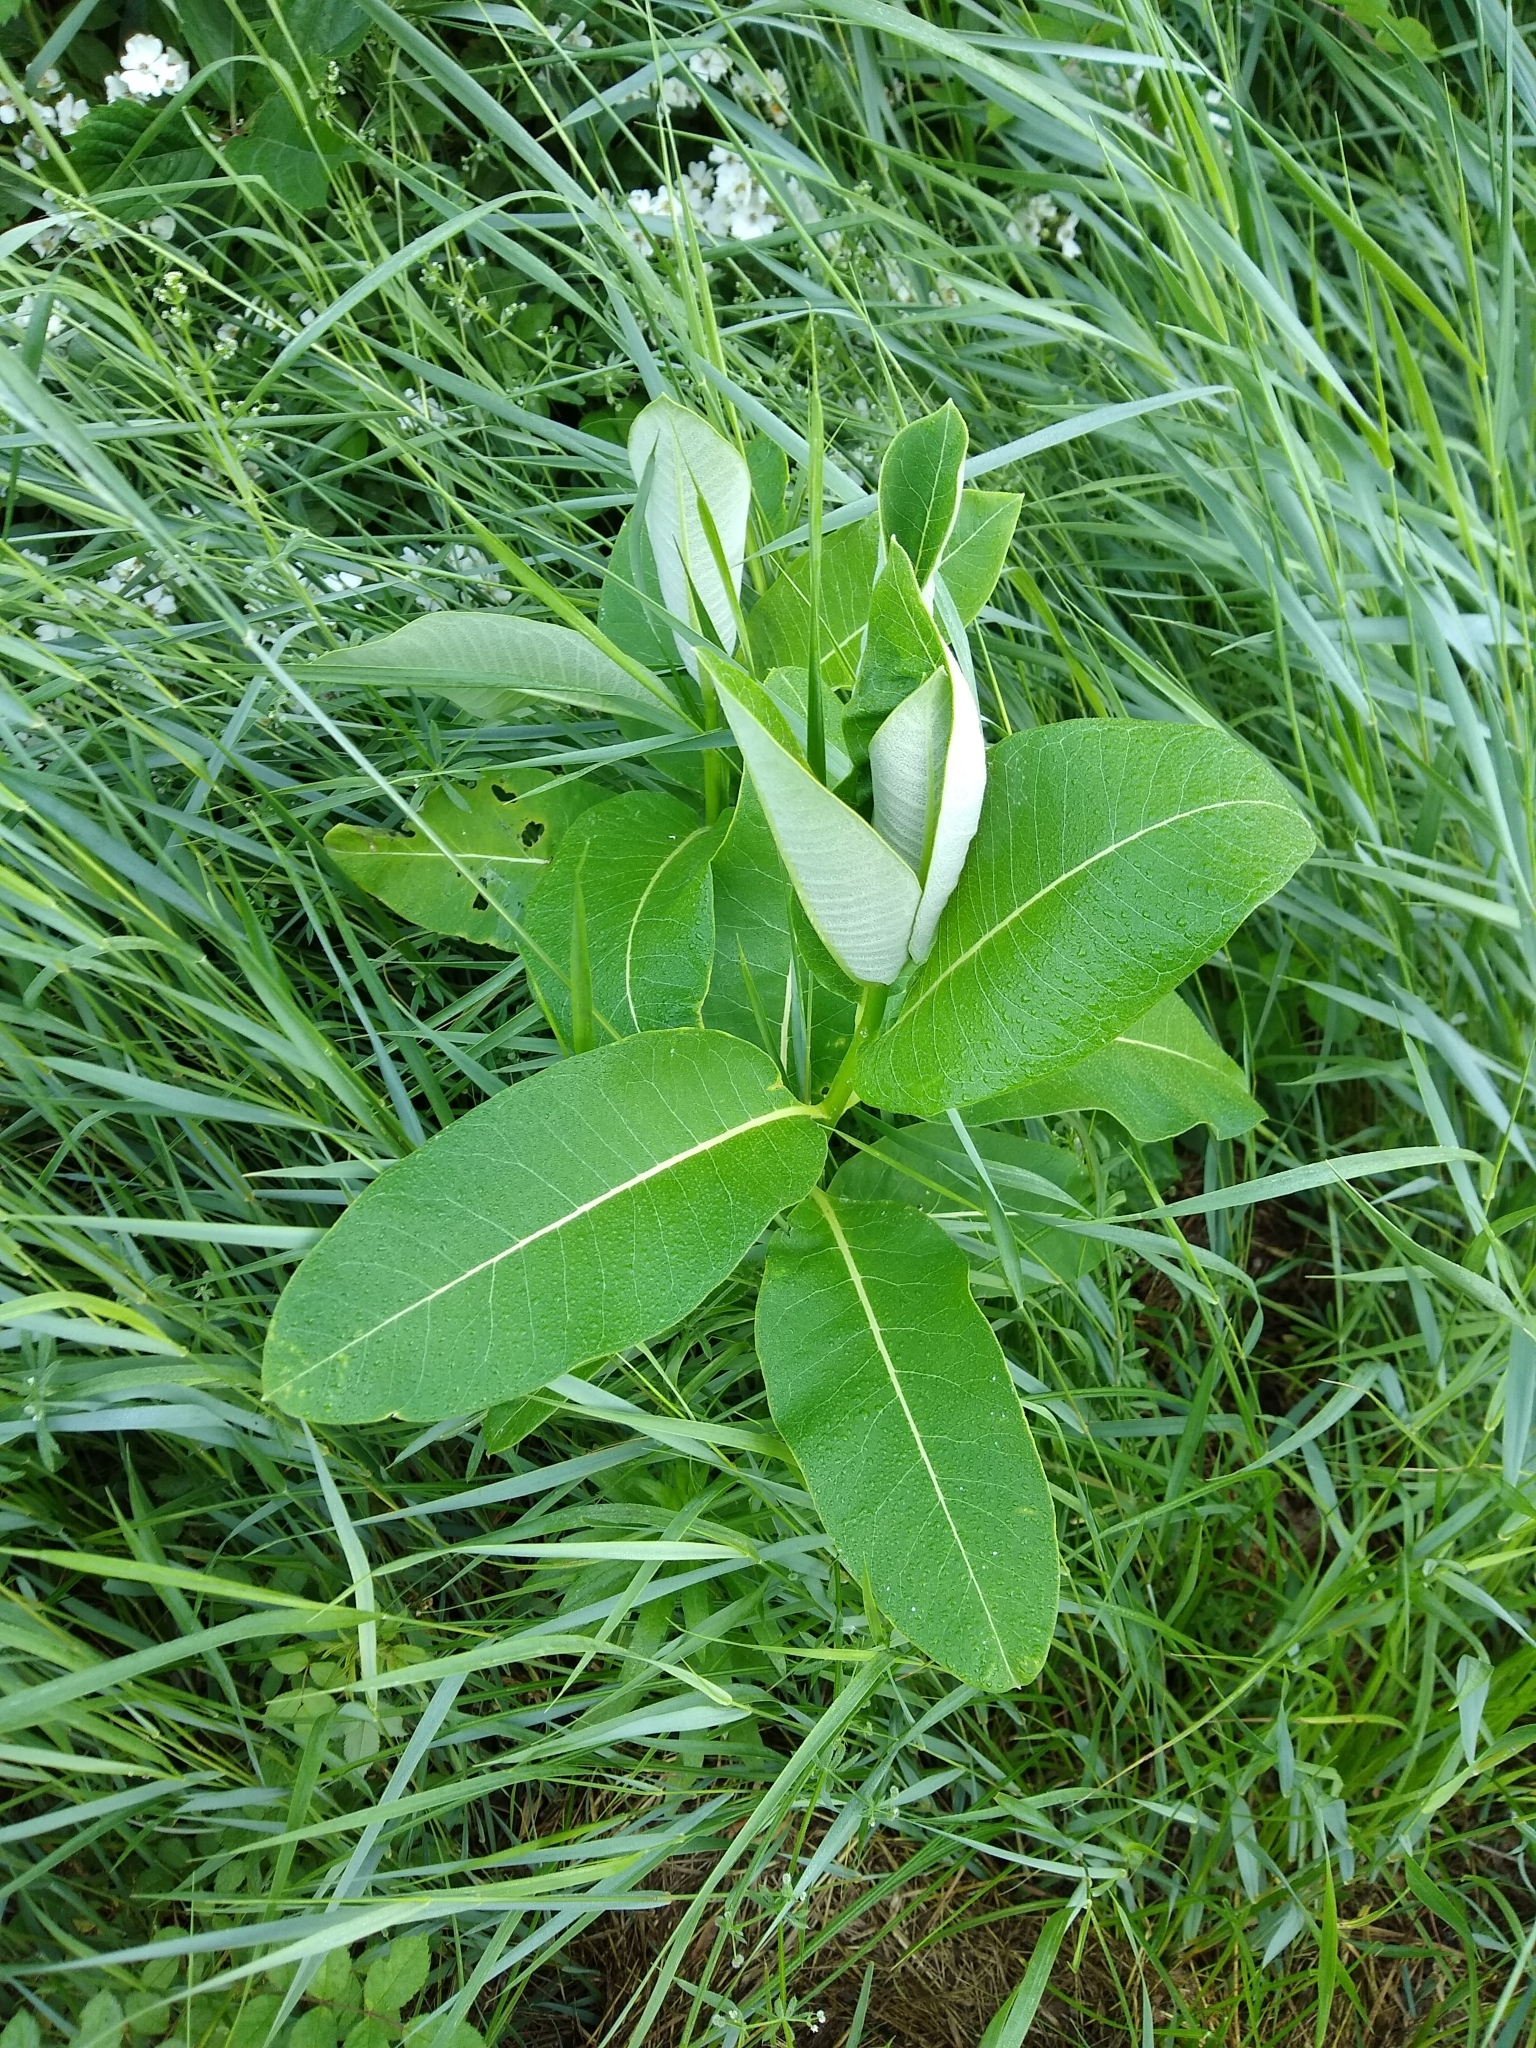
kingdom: Plantae
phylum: Tracheophyta
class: Magnoliopsida
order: Gentianales
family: Apocynaceae
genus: Asclepias
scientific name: Asclepias syriaca
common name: Common milkweed
